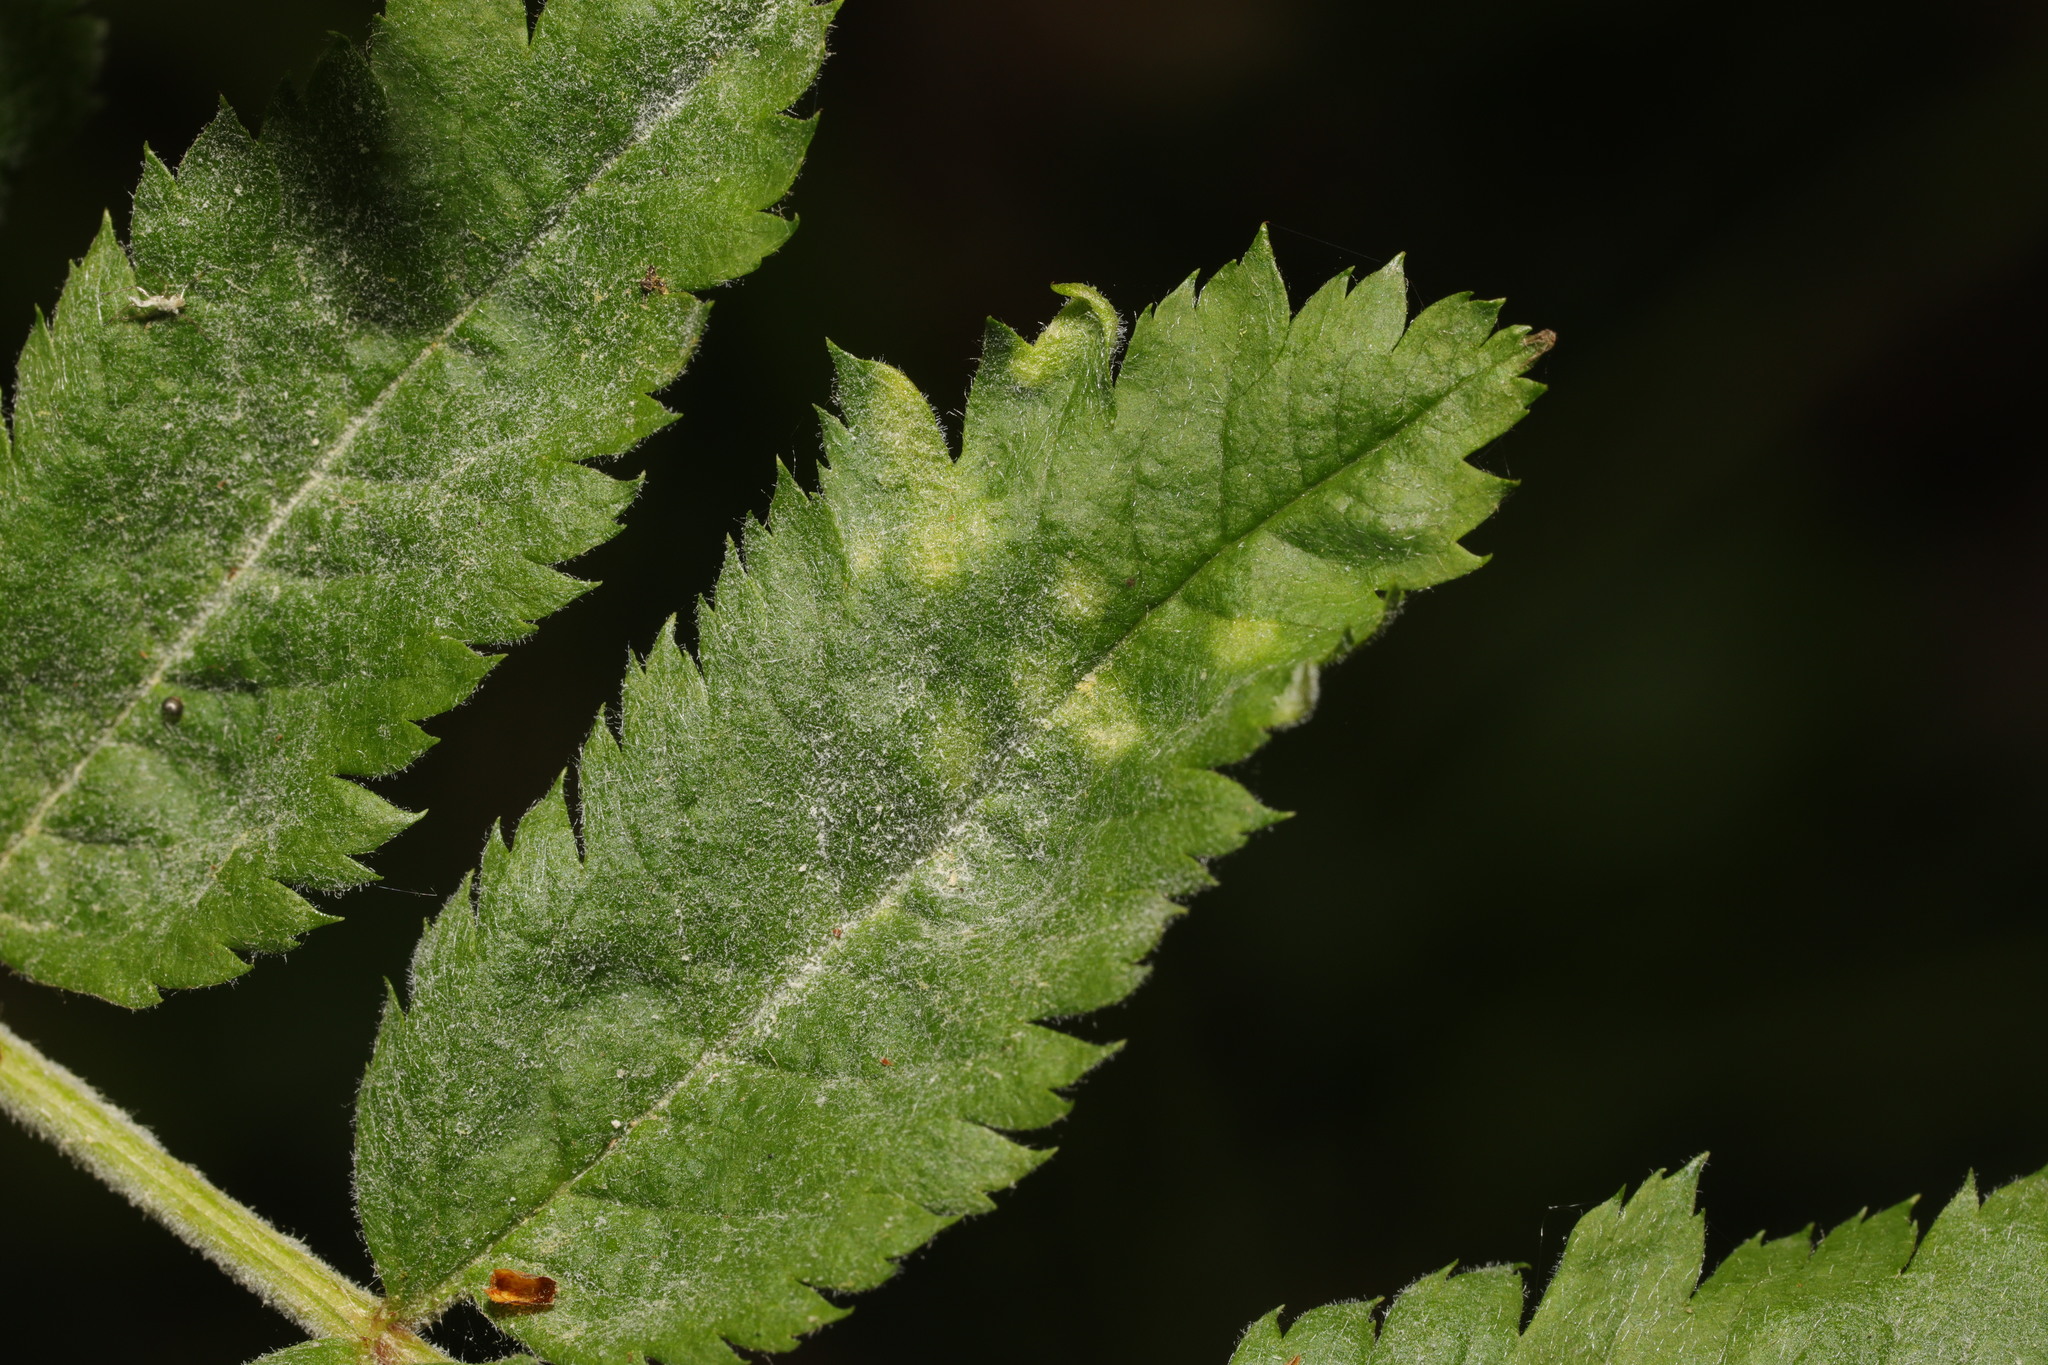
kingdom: Animalia
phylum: Arthropoda
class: Arachnida
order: Trombidiformes
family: Eriophyidae
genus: Eriophyes
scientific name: Eriophyes pyri
